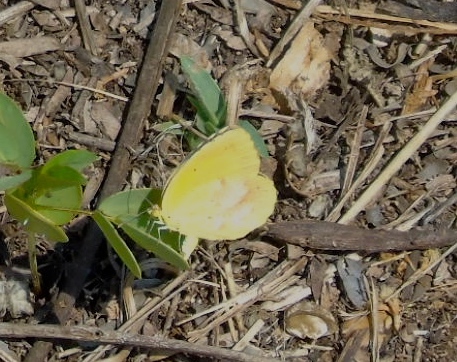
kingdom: Animalia
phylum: Arthropoda
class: Insecta
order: Lepidoptera
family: Pieridae
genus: Abaeis
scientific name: Abaeis nicippe
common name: Sleepy orange
